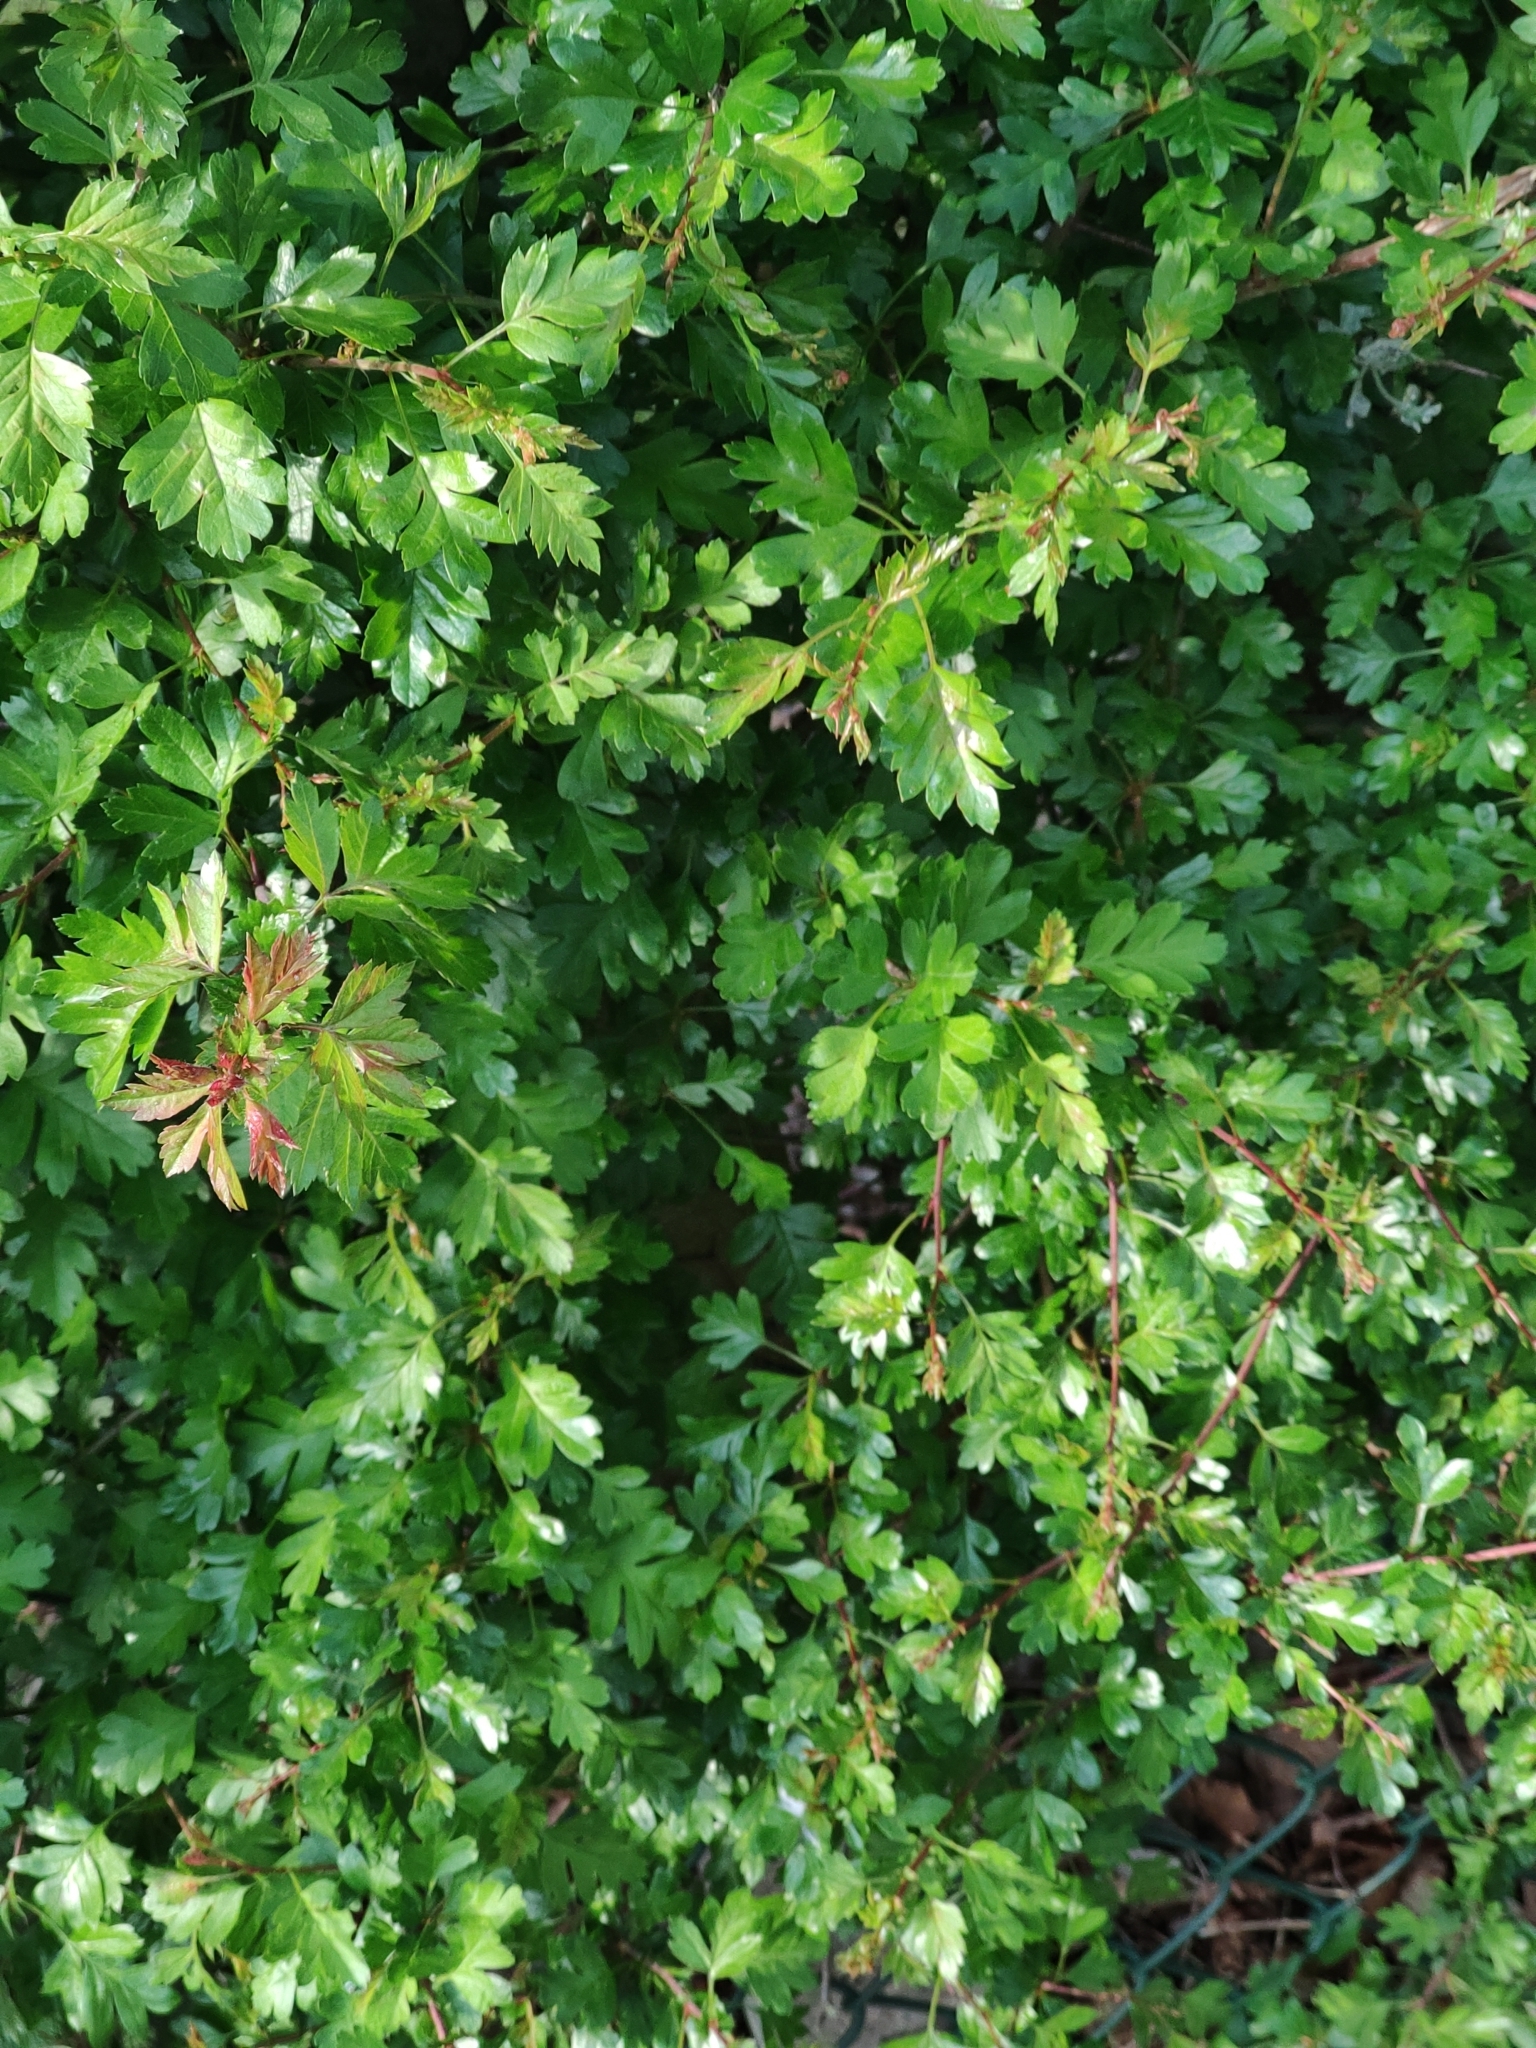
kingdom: Plantae
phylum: Tracheophyta
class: Magnoliopsida
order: Rosales
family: Rosaceae
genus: Crataegus
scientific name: Crataegus monogyna
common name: Hawthorn
